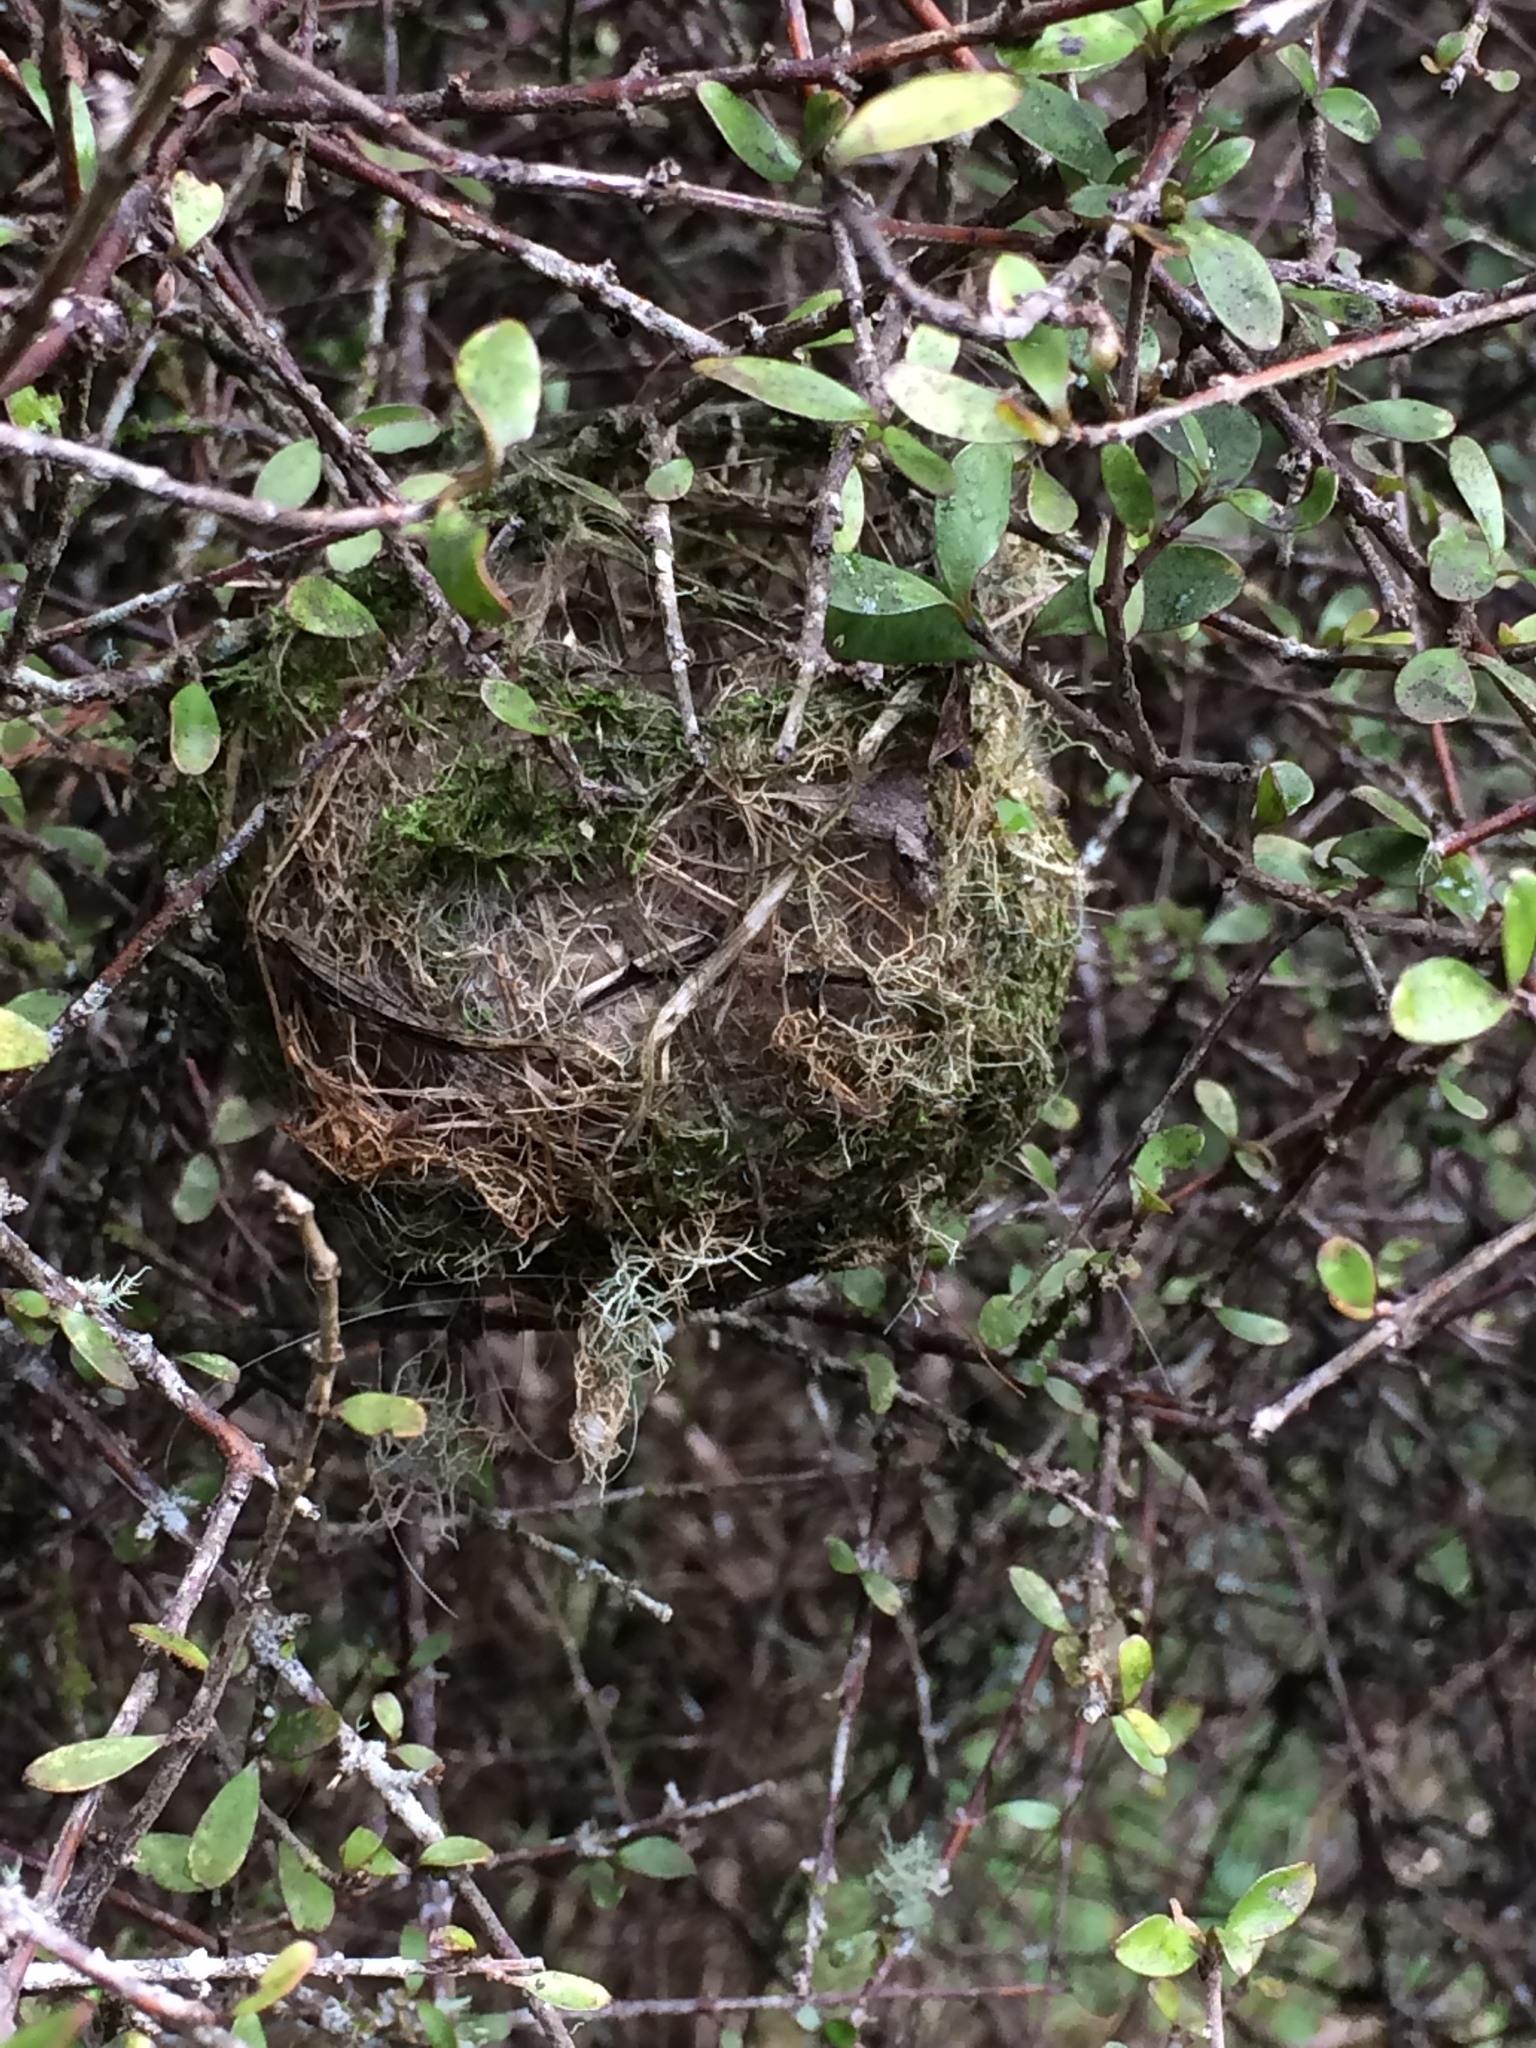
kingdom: Animalia
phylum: Chordata
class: Aves
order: Passeriformes
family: Acanthizidae
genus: Gerygone
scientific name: Gerygone igata
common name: Grey gerygone
